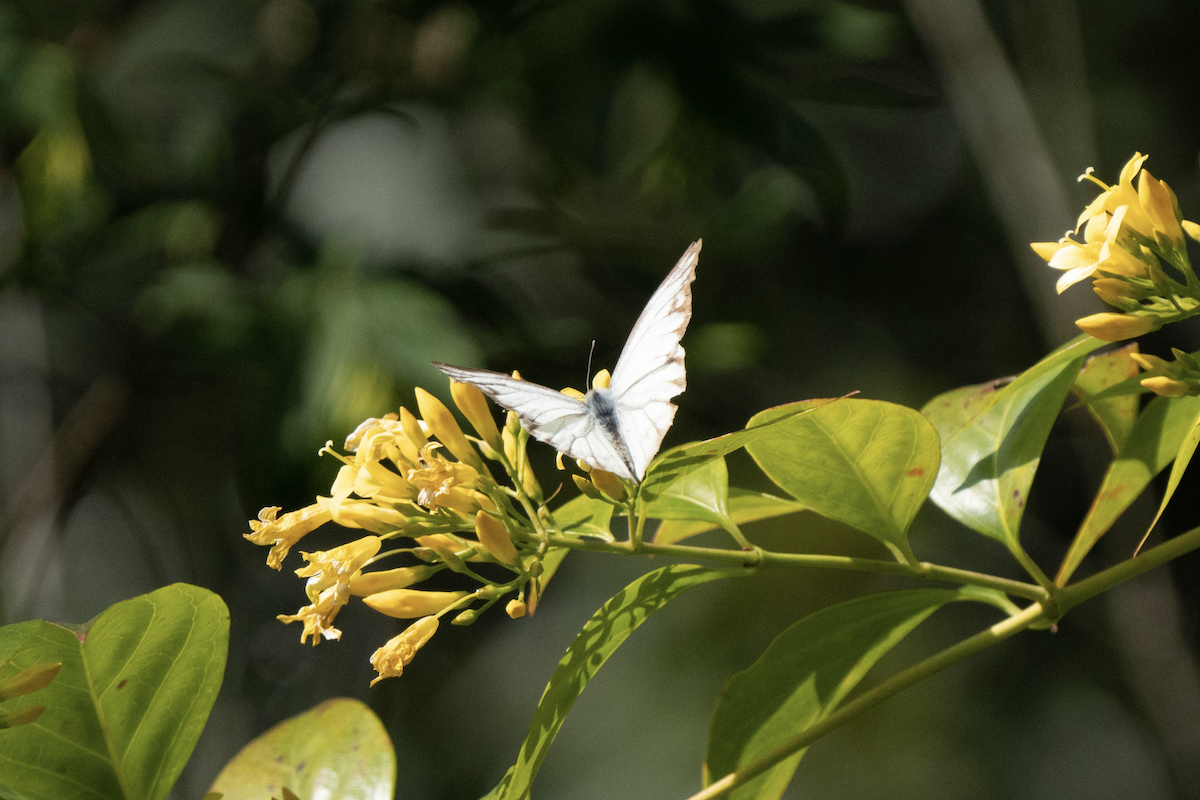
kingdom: Animalia
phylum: Arthropoda
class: Insecta
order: Lepidoptera
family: Pieridae
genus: Cepora
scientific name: Cepora nerissa
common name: Common gull
